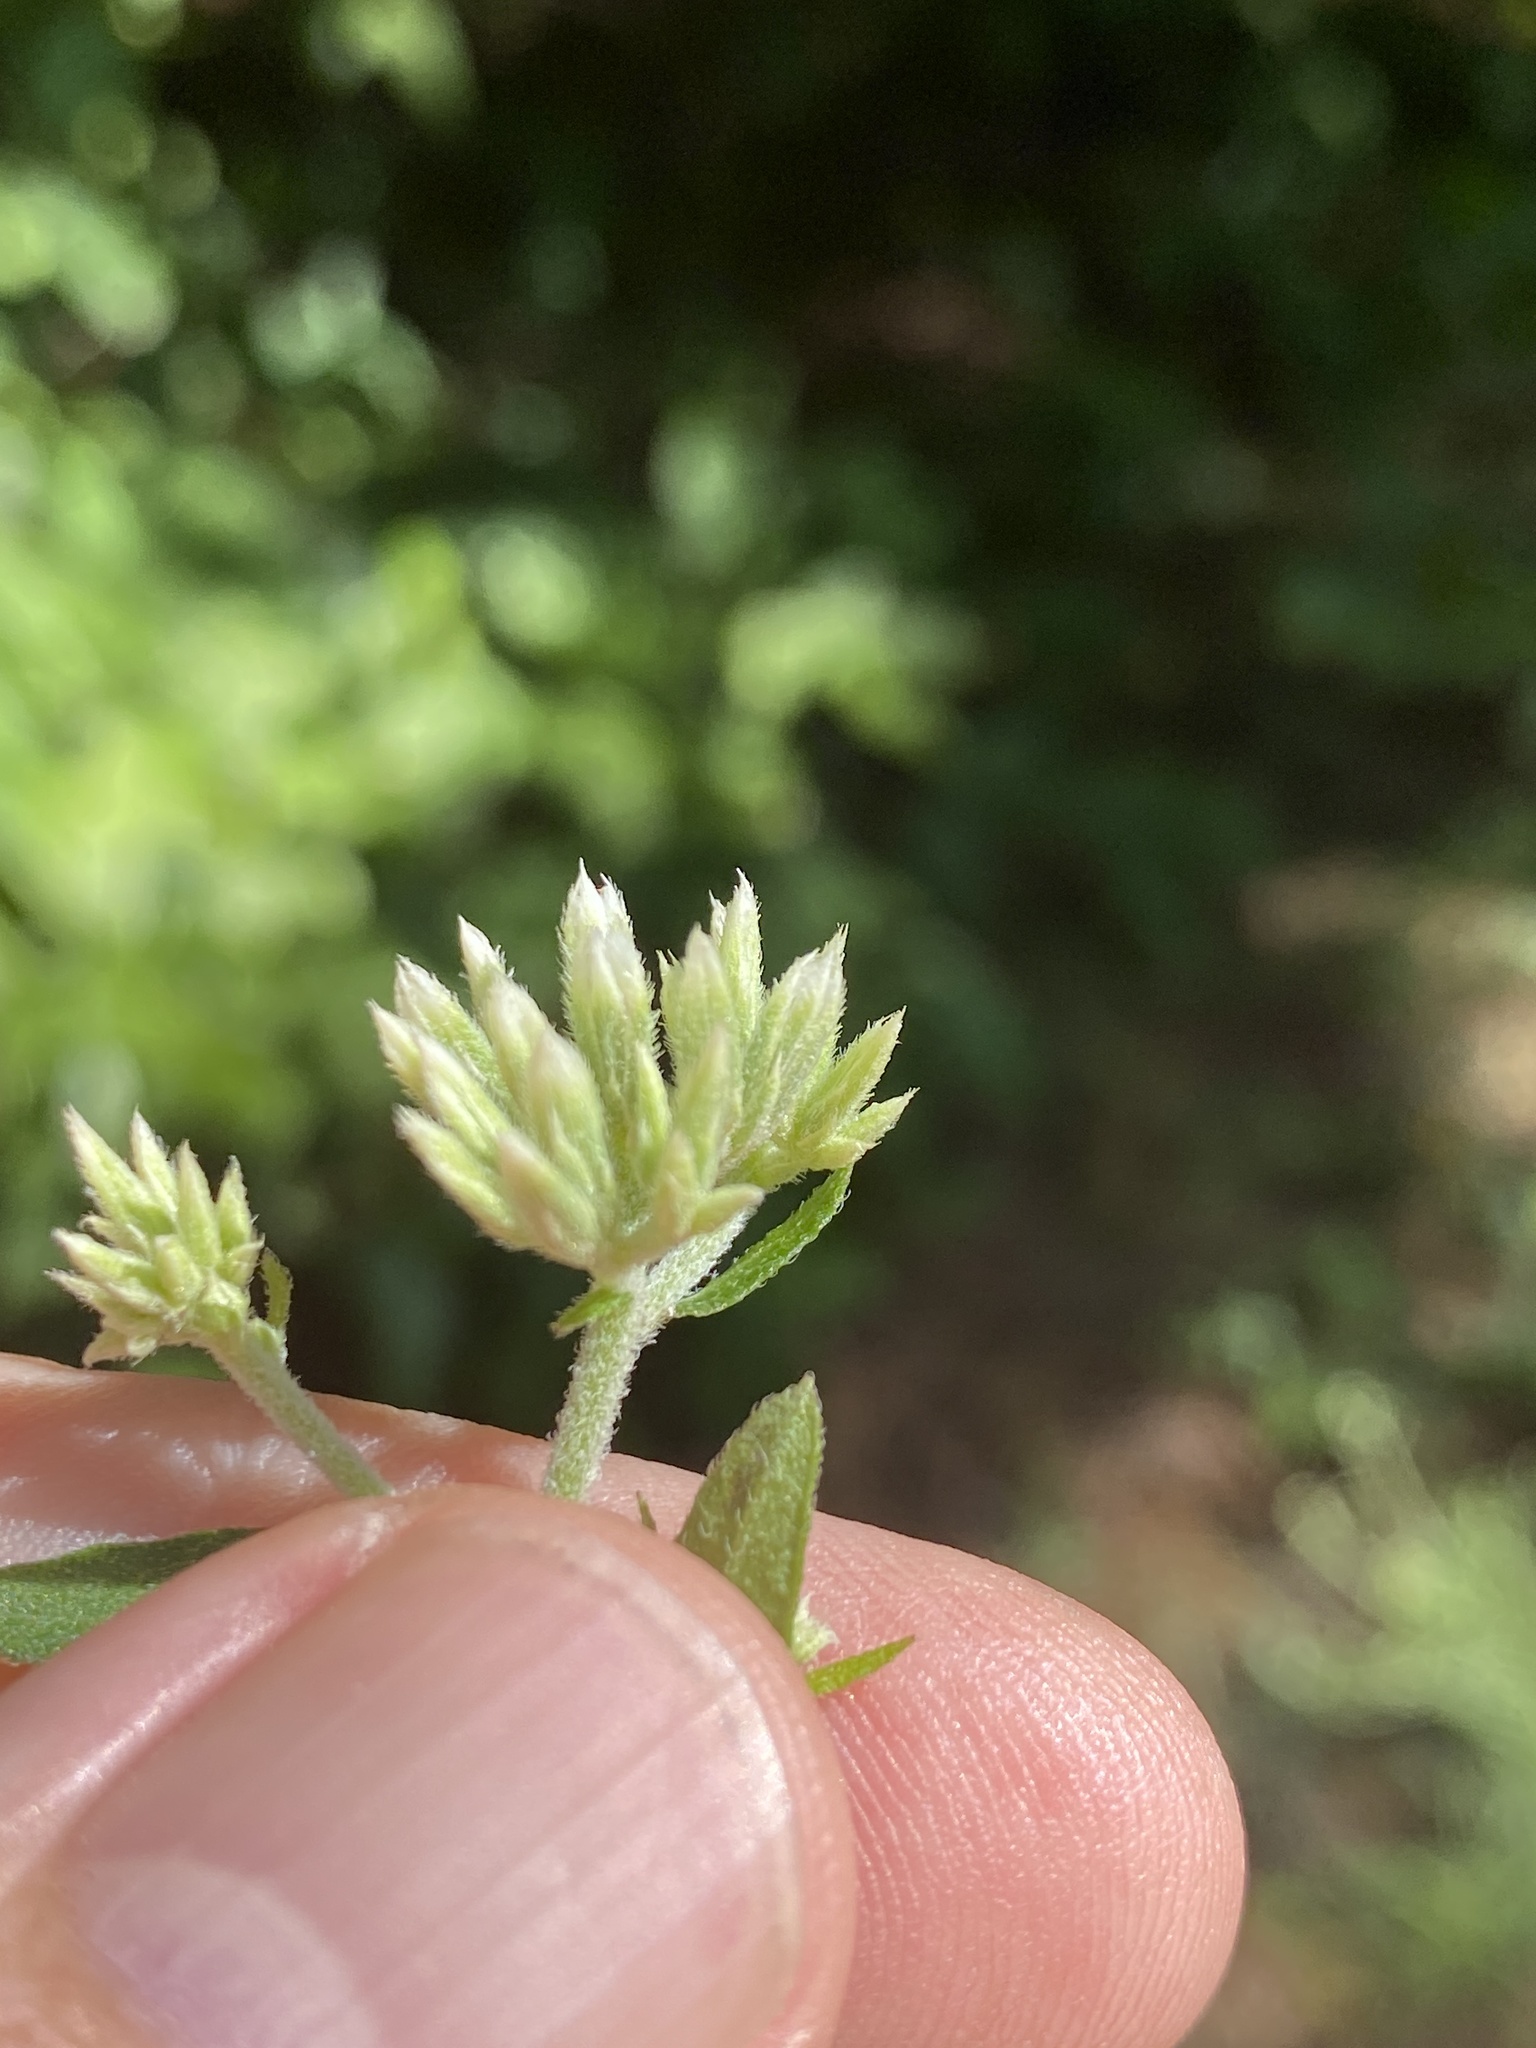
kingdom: Plantae
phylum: Tracheophyta
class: Magnoliopsida
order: Asterales
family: Asteraceae
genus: Eupatorium
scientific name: Eupatorium album
